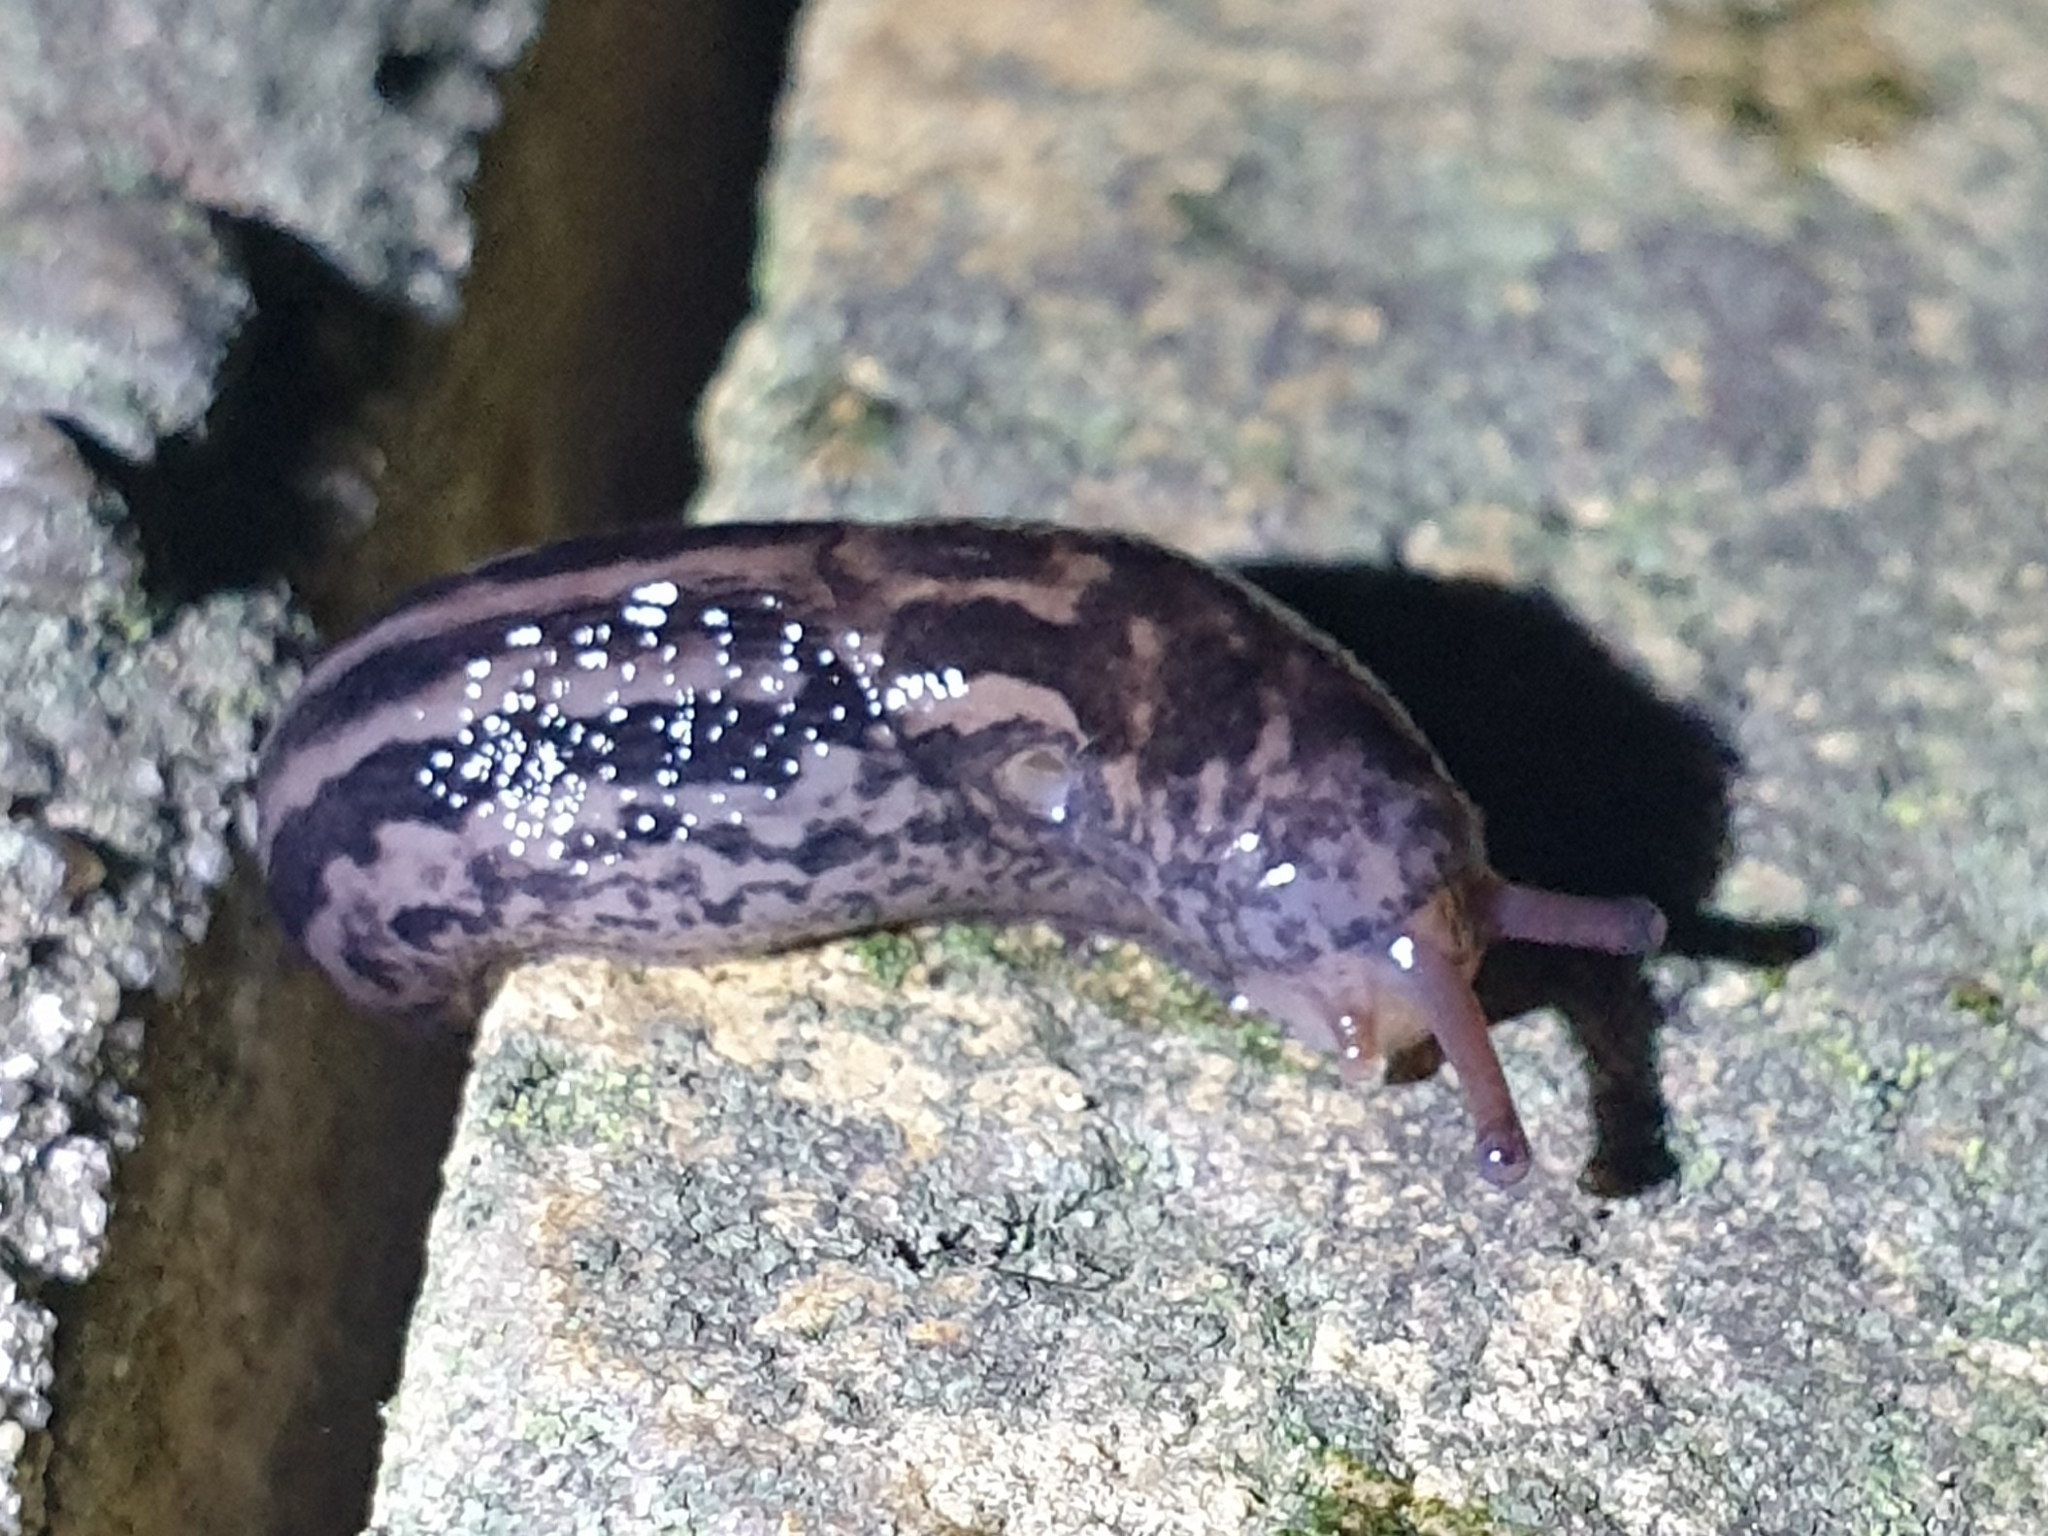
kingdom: Animalia
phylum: Mollusca
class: Gastropoda
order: Stylommatophora
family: Limacidae
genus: Limax
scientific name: Limax maximus
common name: Great grey slug
